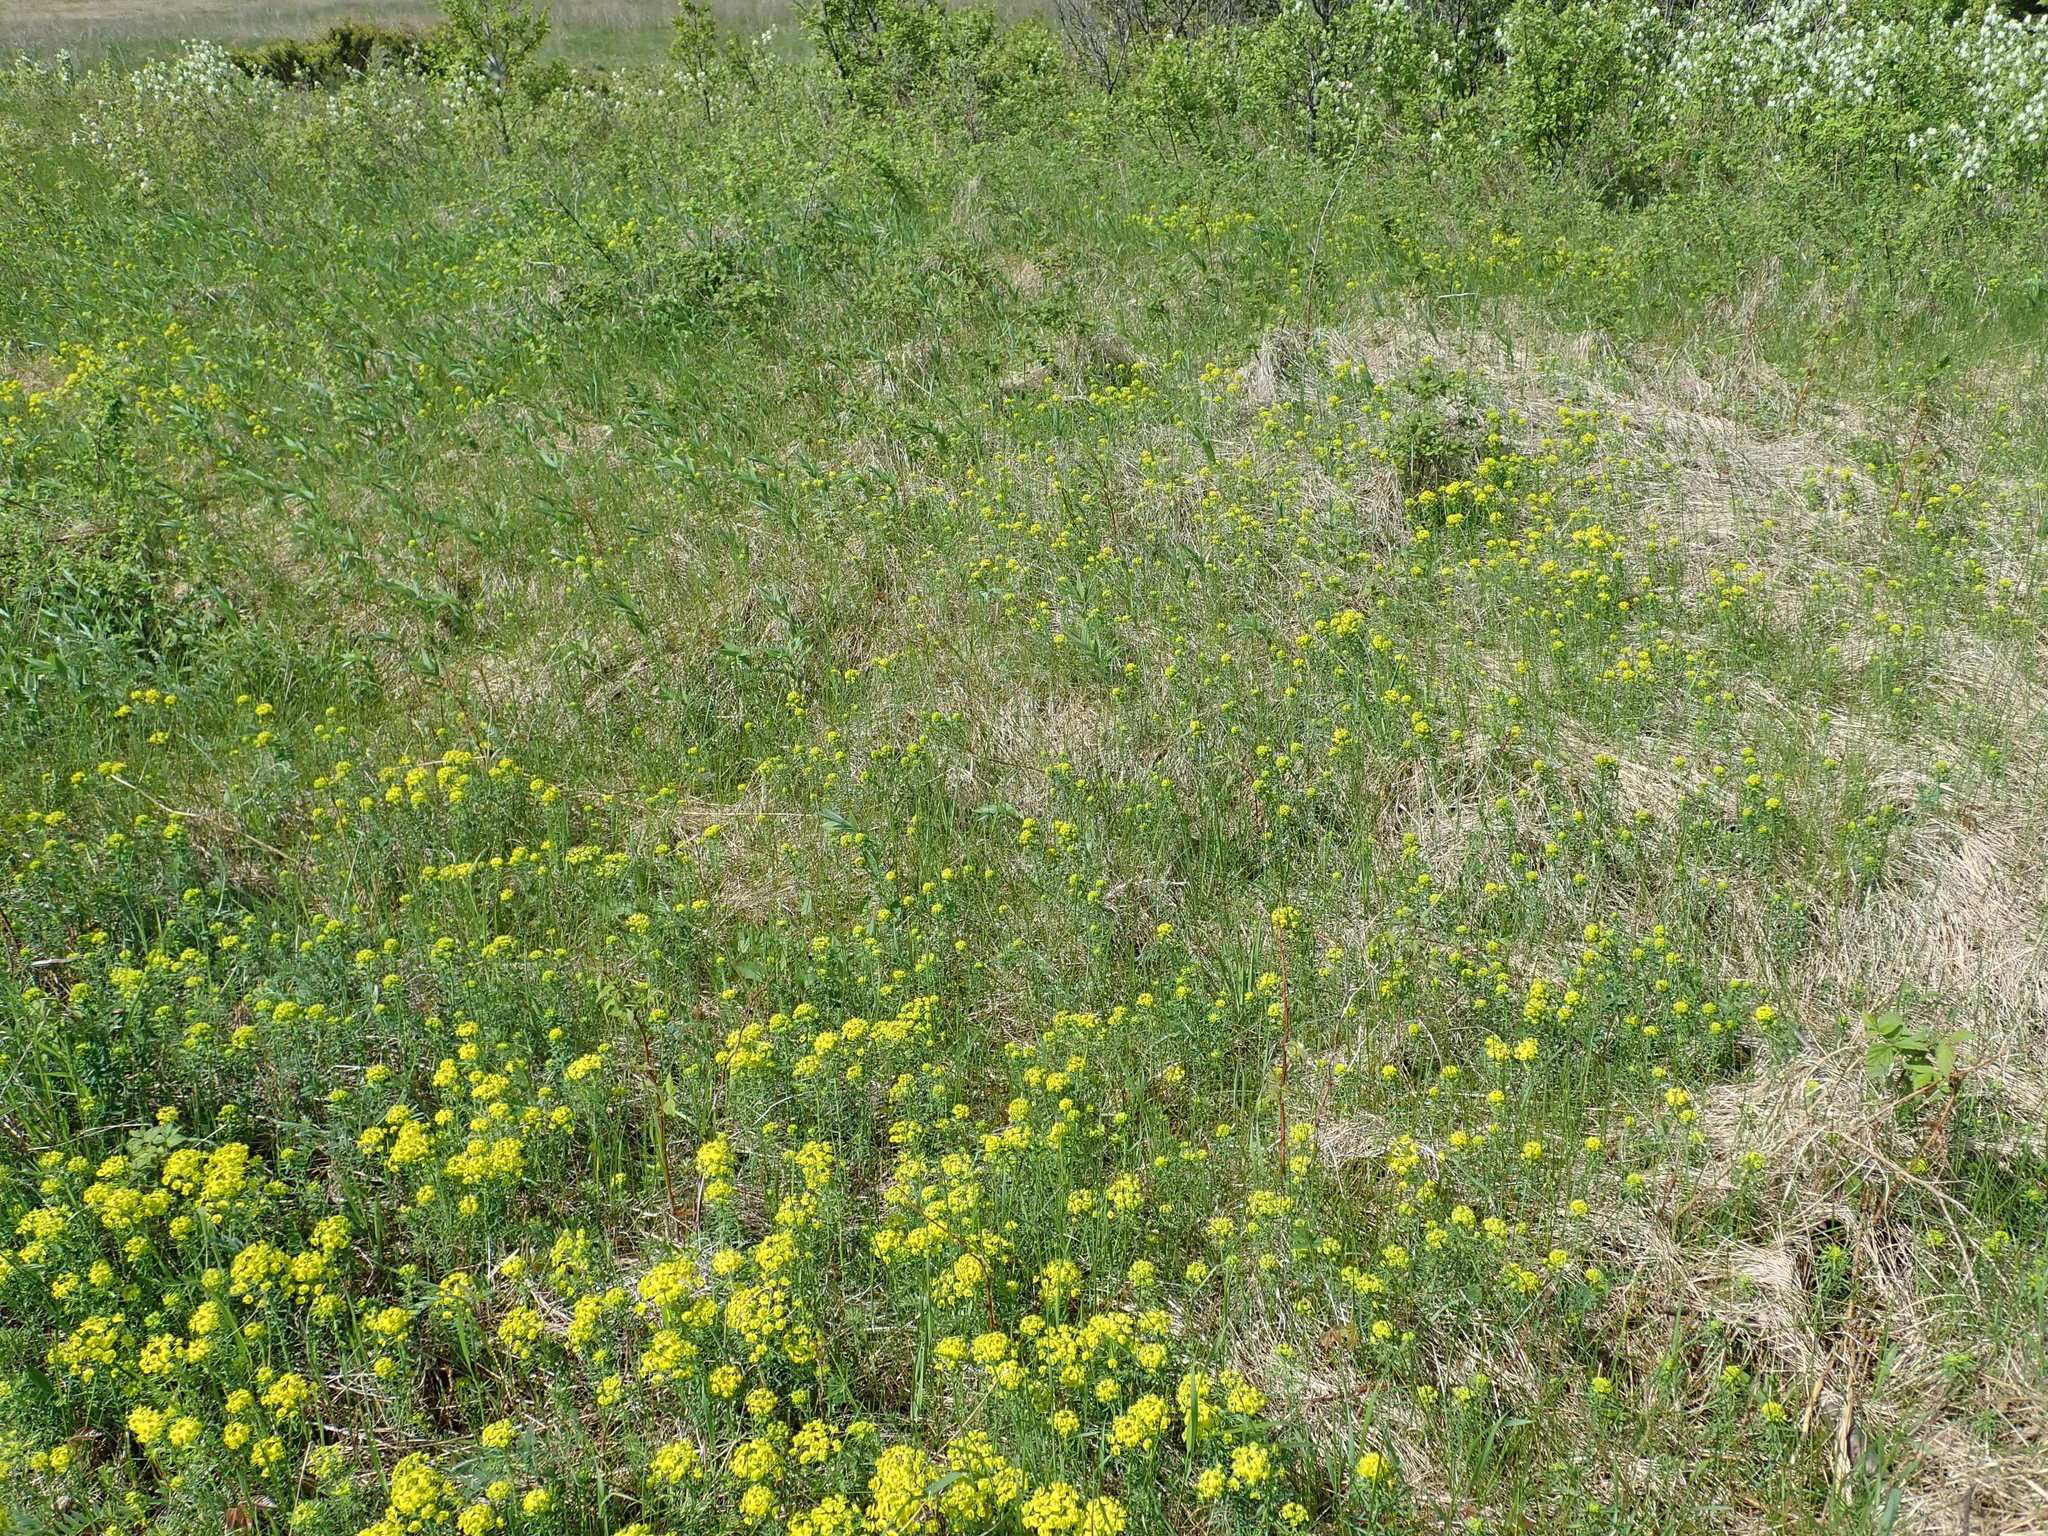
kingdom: Plantae
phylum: Tracheophyta
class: Magnoliopsida
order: Malpighiales
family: Euphorbiaceae
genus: Euphorbia
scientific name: Euphorbia cyparissias
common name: Cypress spurge
